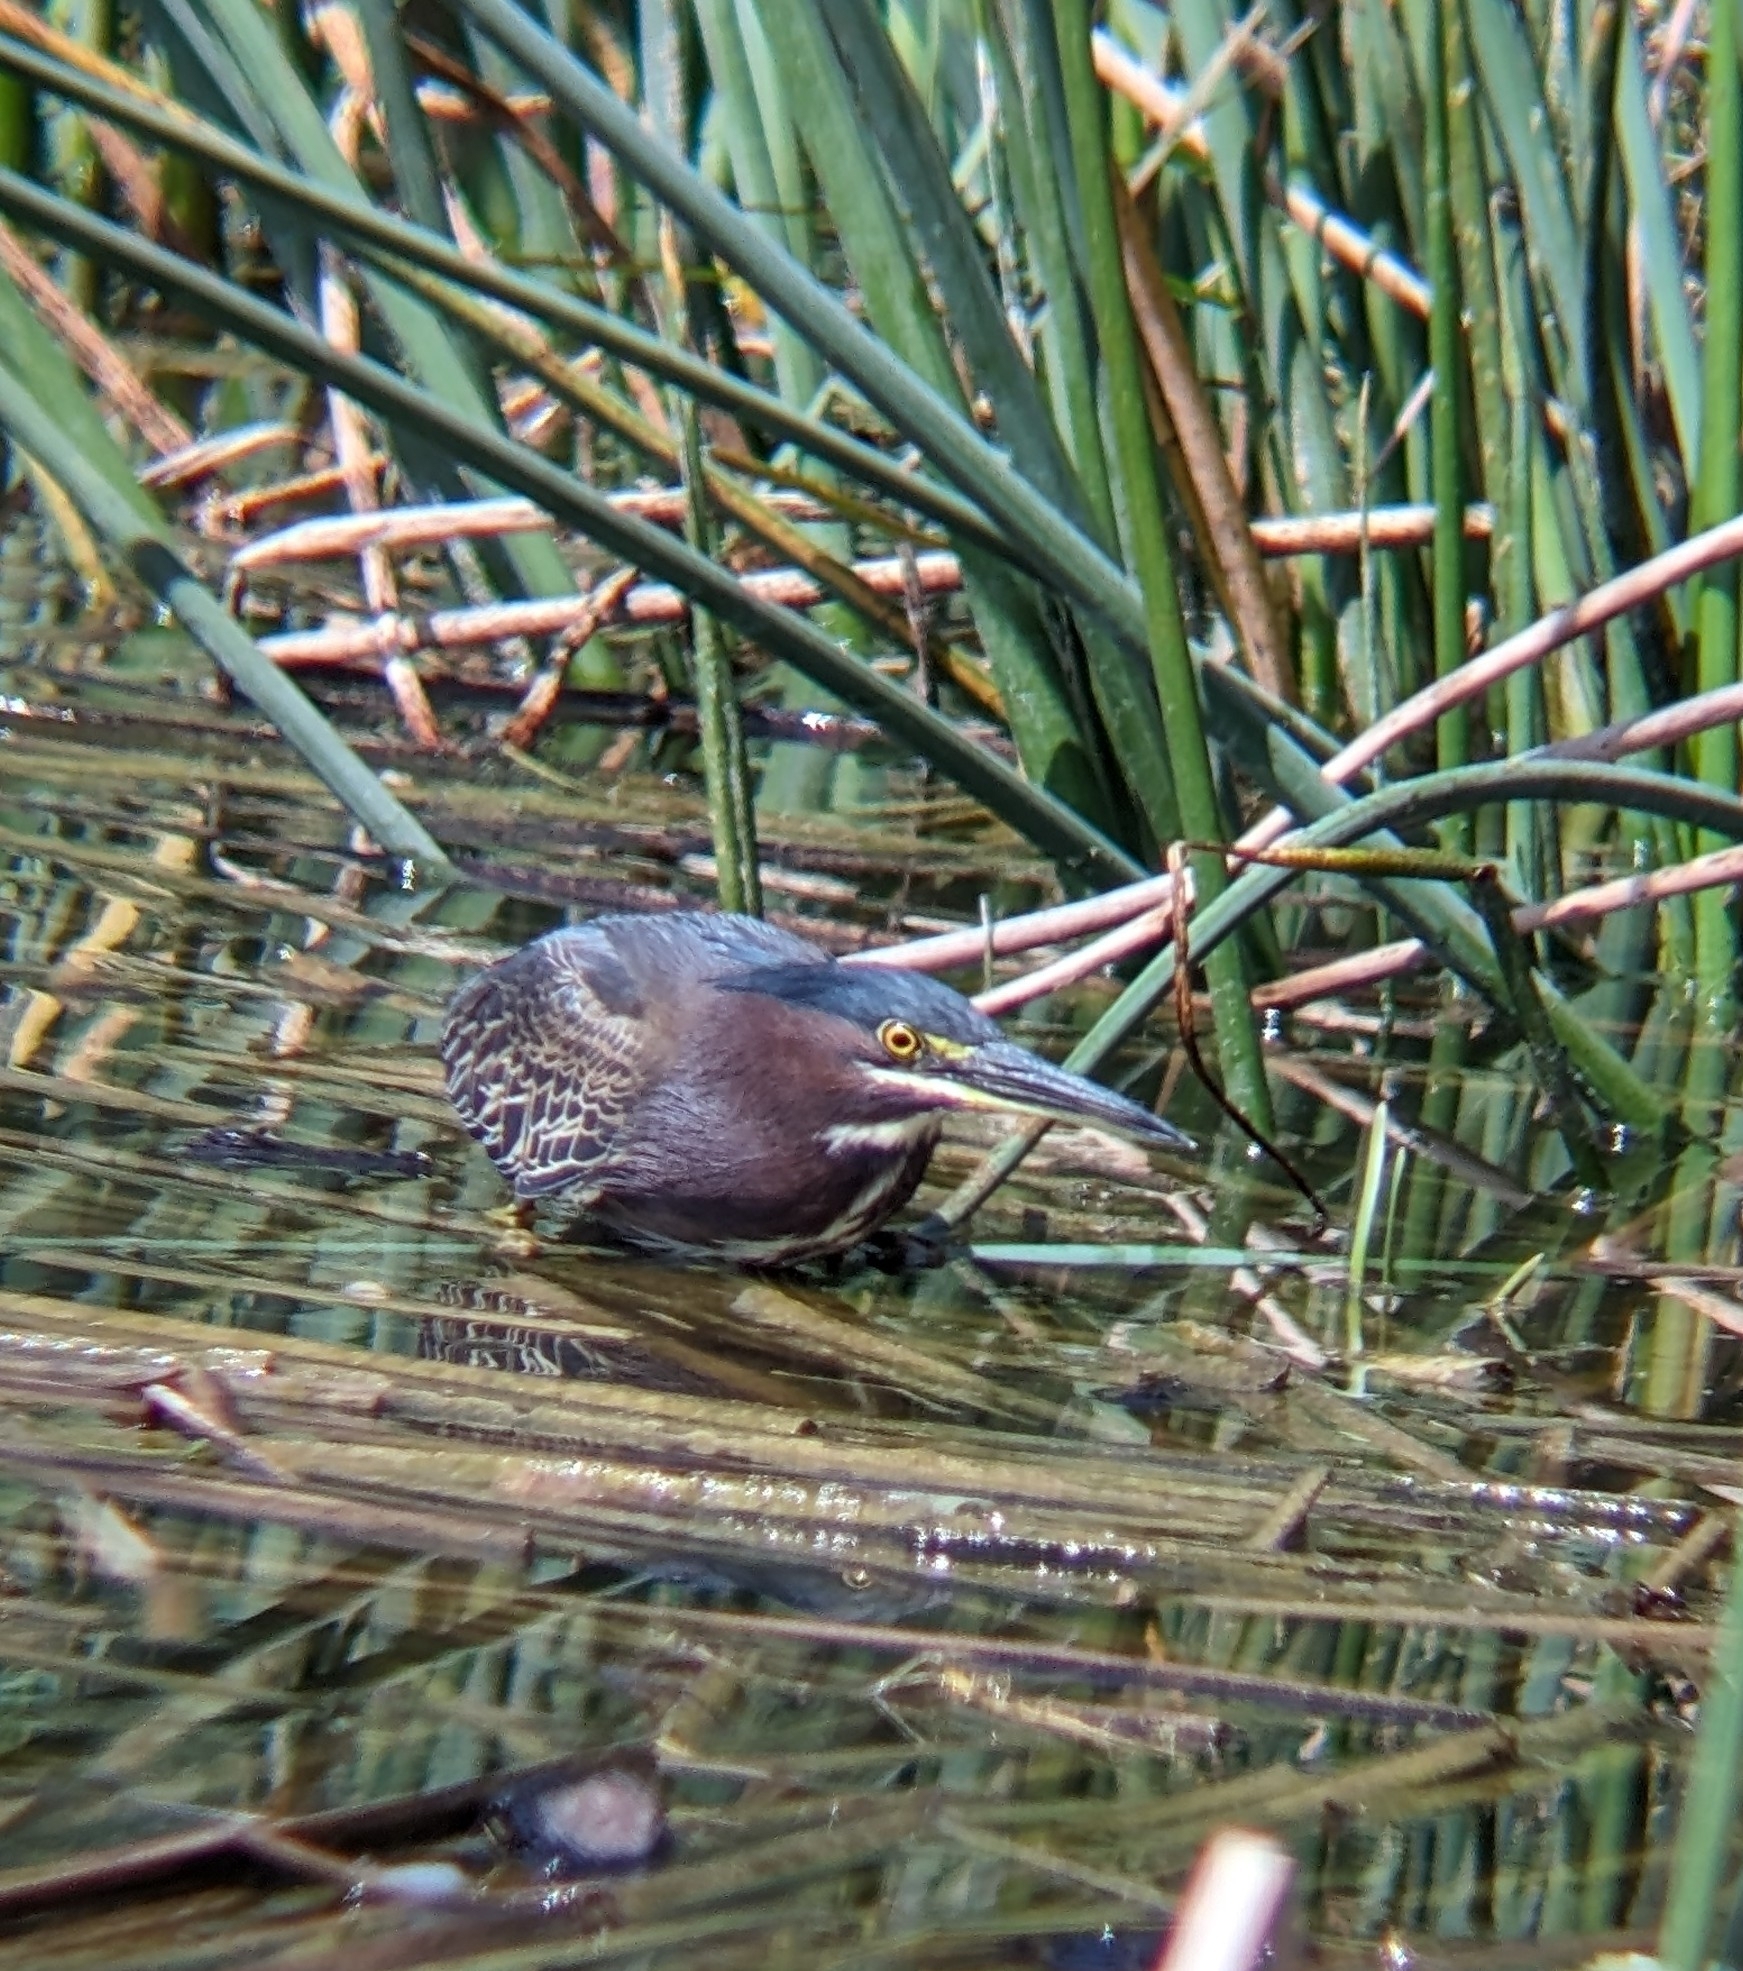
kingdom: Animalia
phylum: Chordata
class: Aves
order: Pelecaniformes
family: Ardeidae
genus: Butorides
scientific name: Butorides virescens
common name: Green heron
